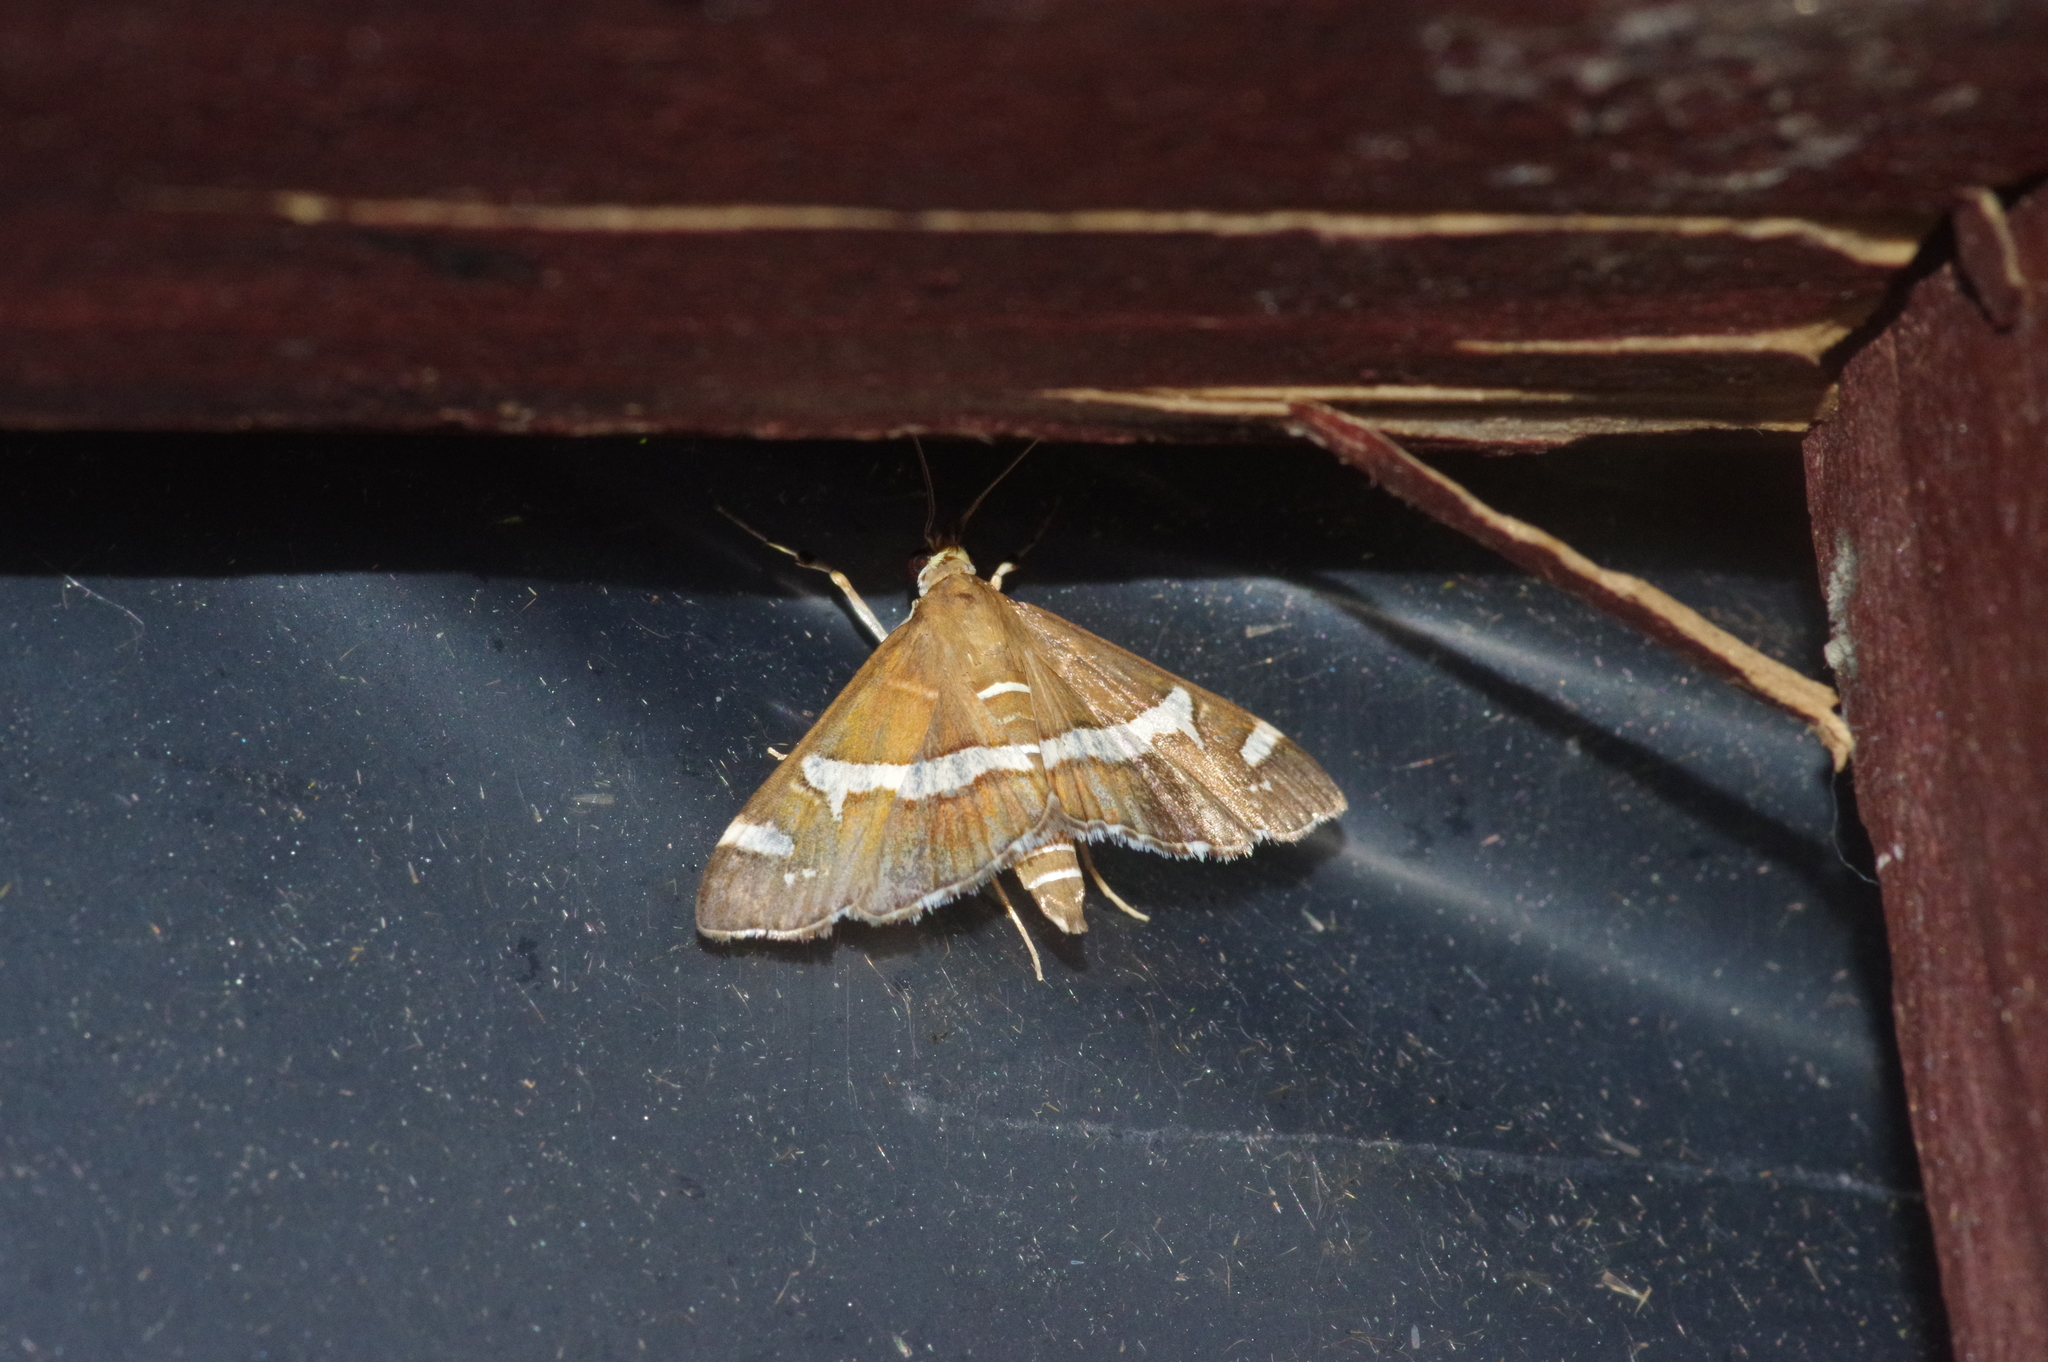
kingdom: Animalia
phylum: Arthropoda
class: Insecta
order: Lepidoptera
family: Crambidae
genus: Spoladea
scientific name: Spoladea recurvalis
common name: Beet webworm moth
